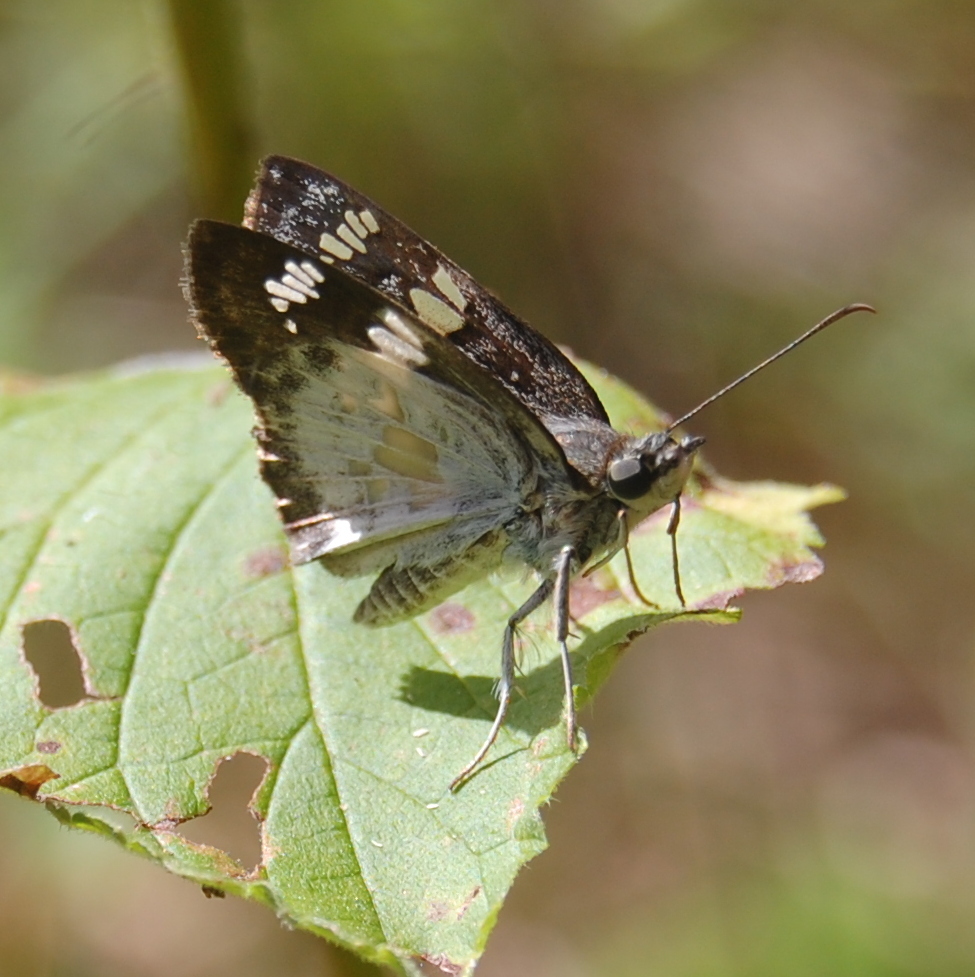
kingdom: Animalia
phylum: Arthropoda
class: Insecta
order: Lepidoptera
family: Hesperiidae
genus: Xenophanes
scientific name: Xenophanes tryxus
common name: Glassy-winged skipper
